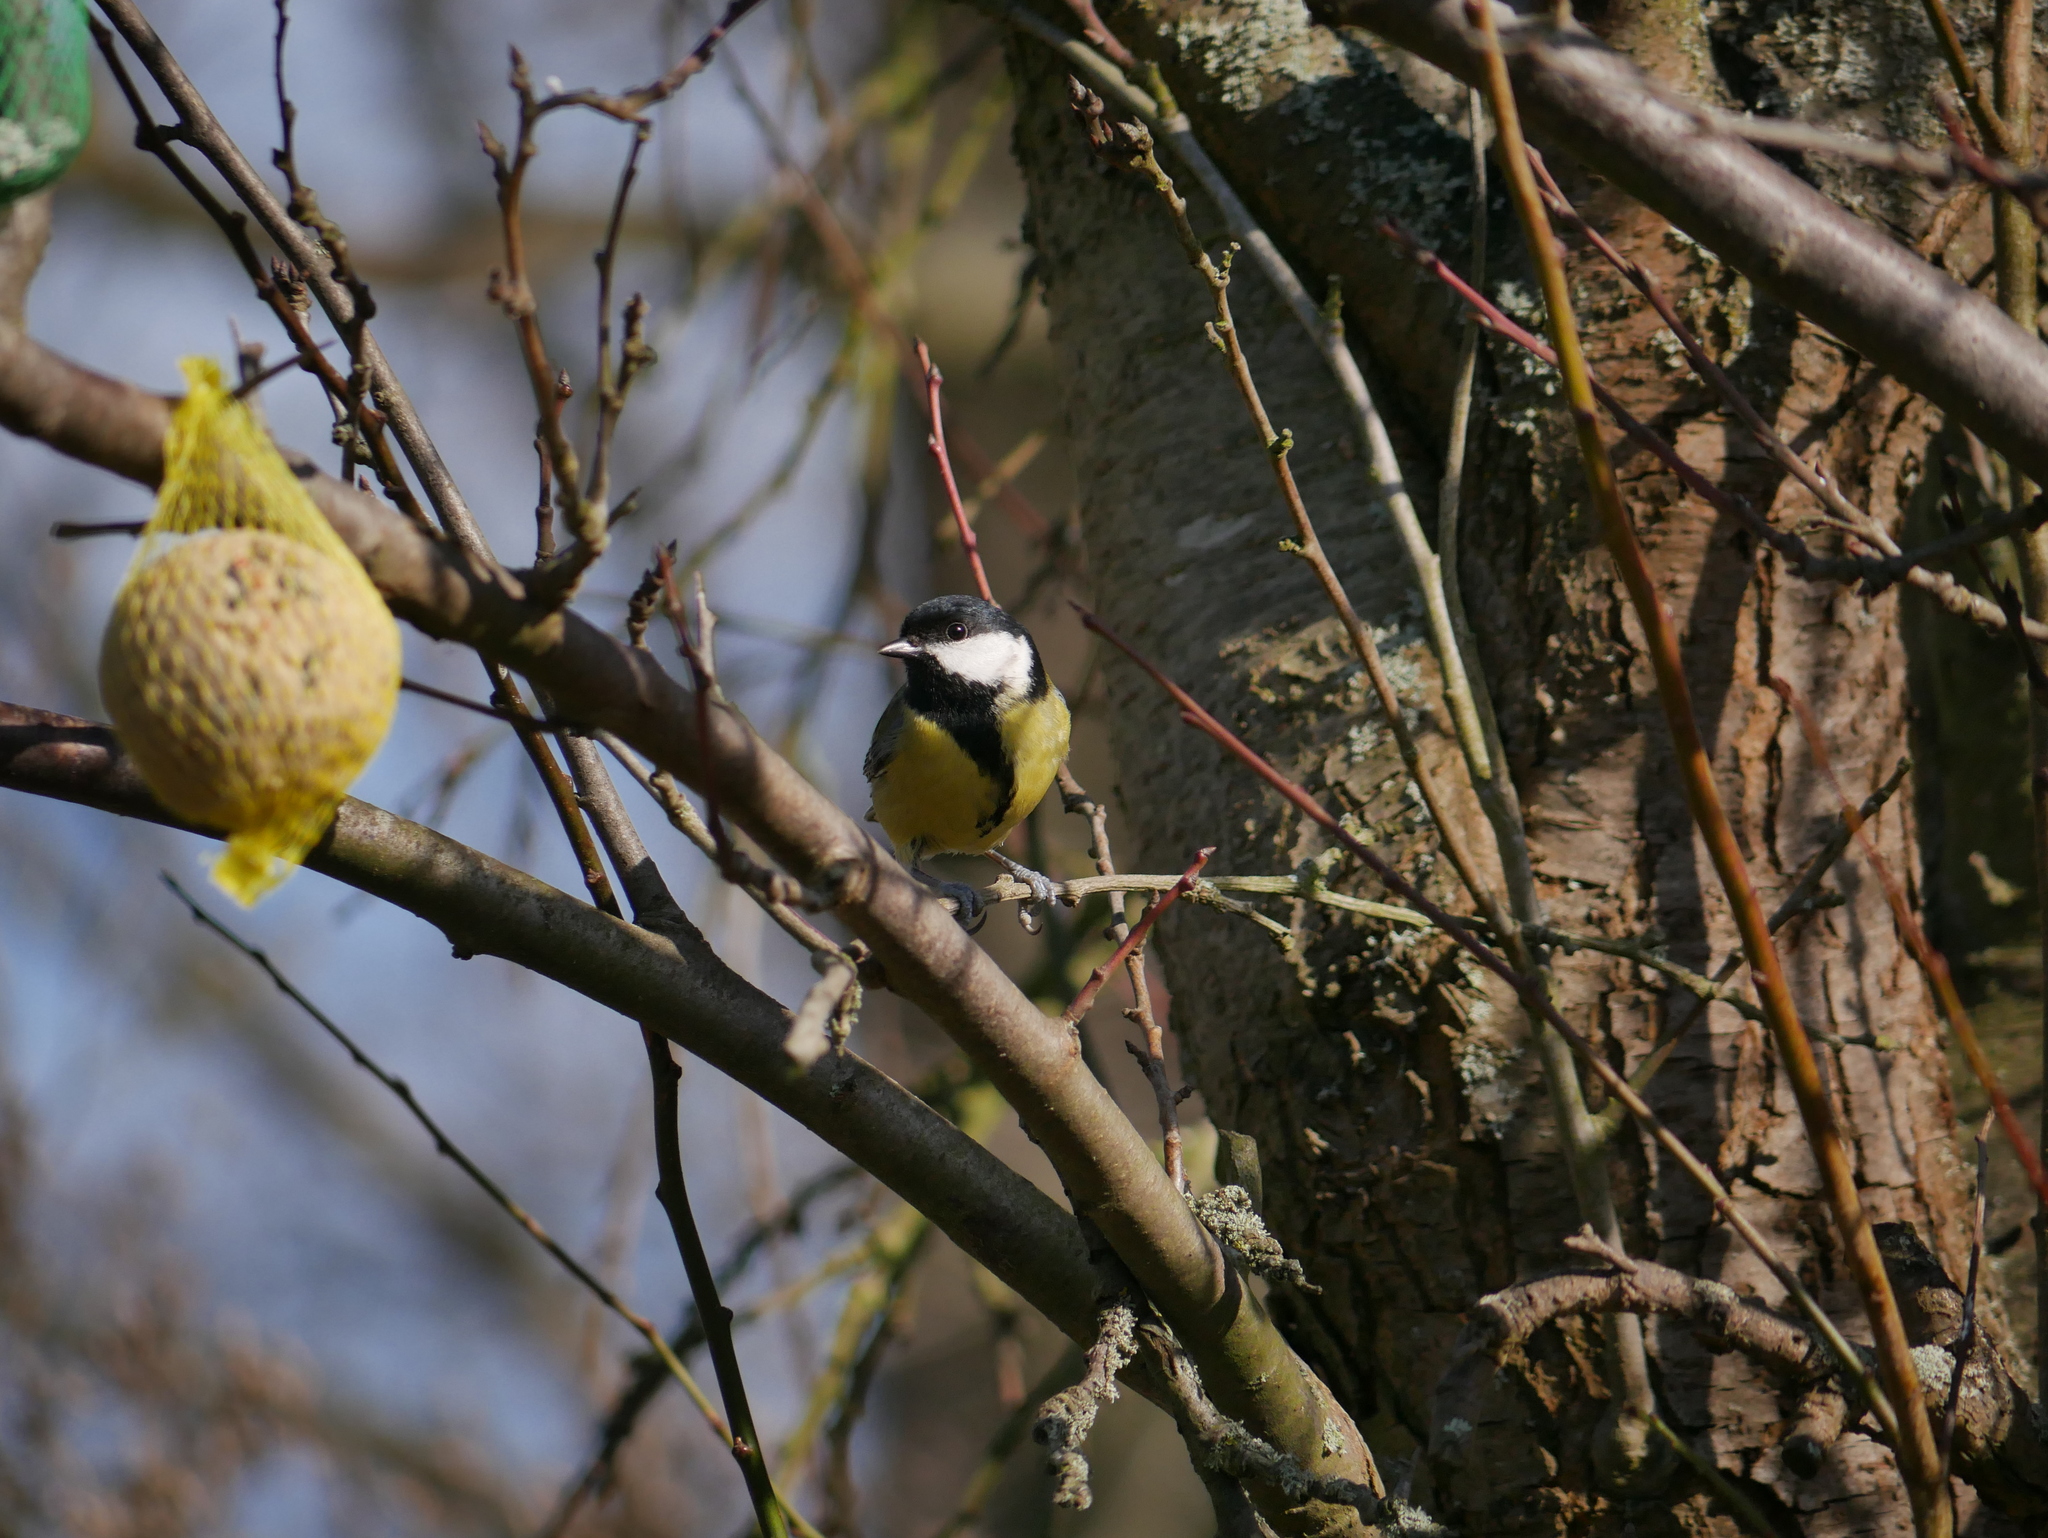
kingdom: Animalia
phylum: Chordata
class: Aves
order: Passeriformes
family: Paridae
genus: Parus
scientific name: Parus major
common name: Great tit
